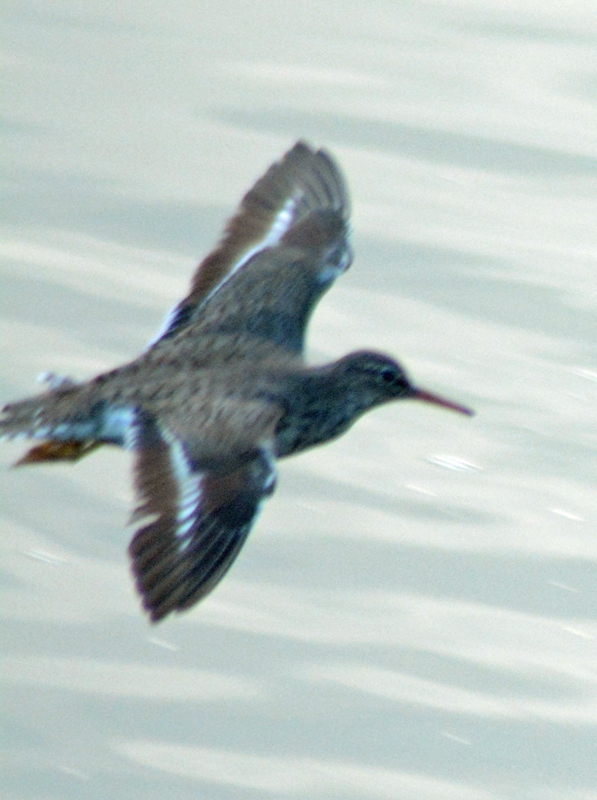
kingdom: Animalia
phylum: Chordata
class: Aves
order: Charadriiformes
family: Scolopacidae
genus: Actitis
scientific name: Actitis macularius
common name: Spotted sandpiper
